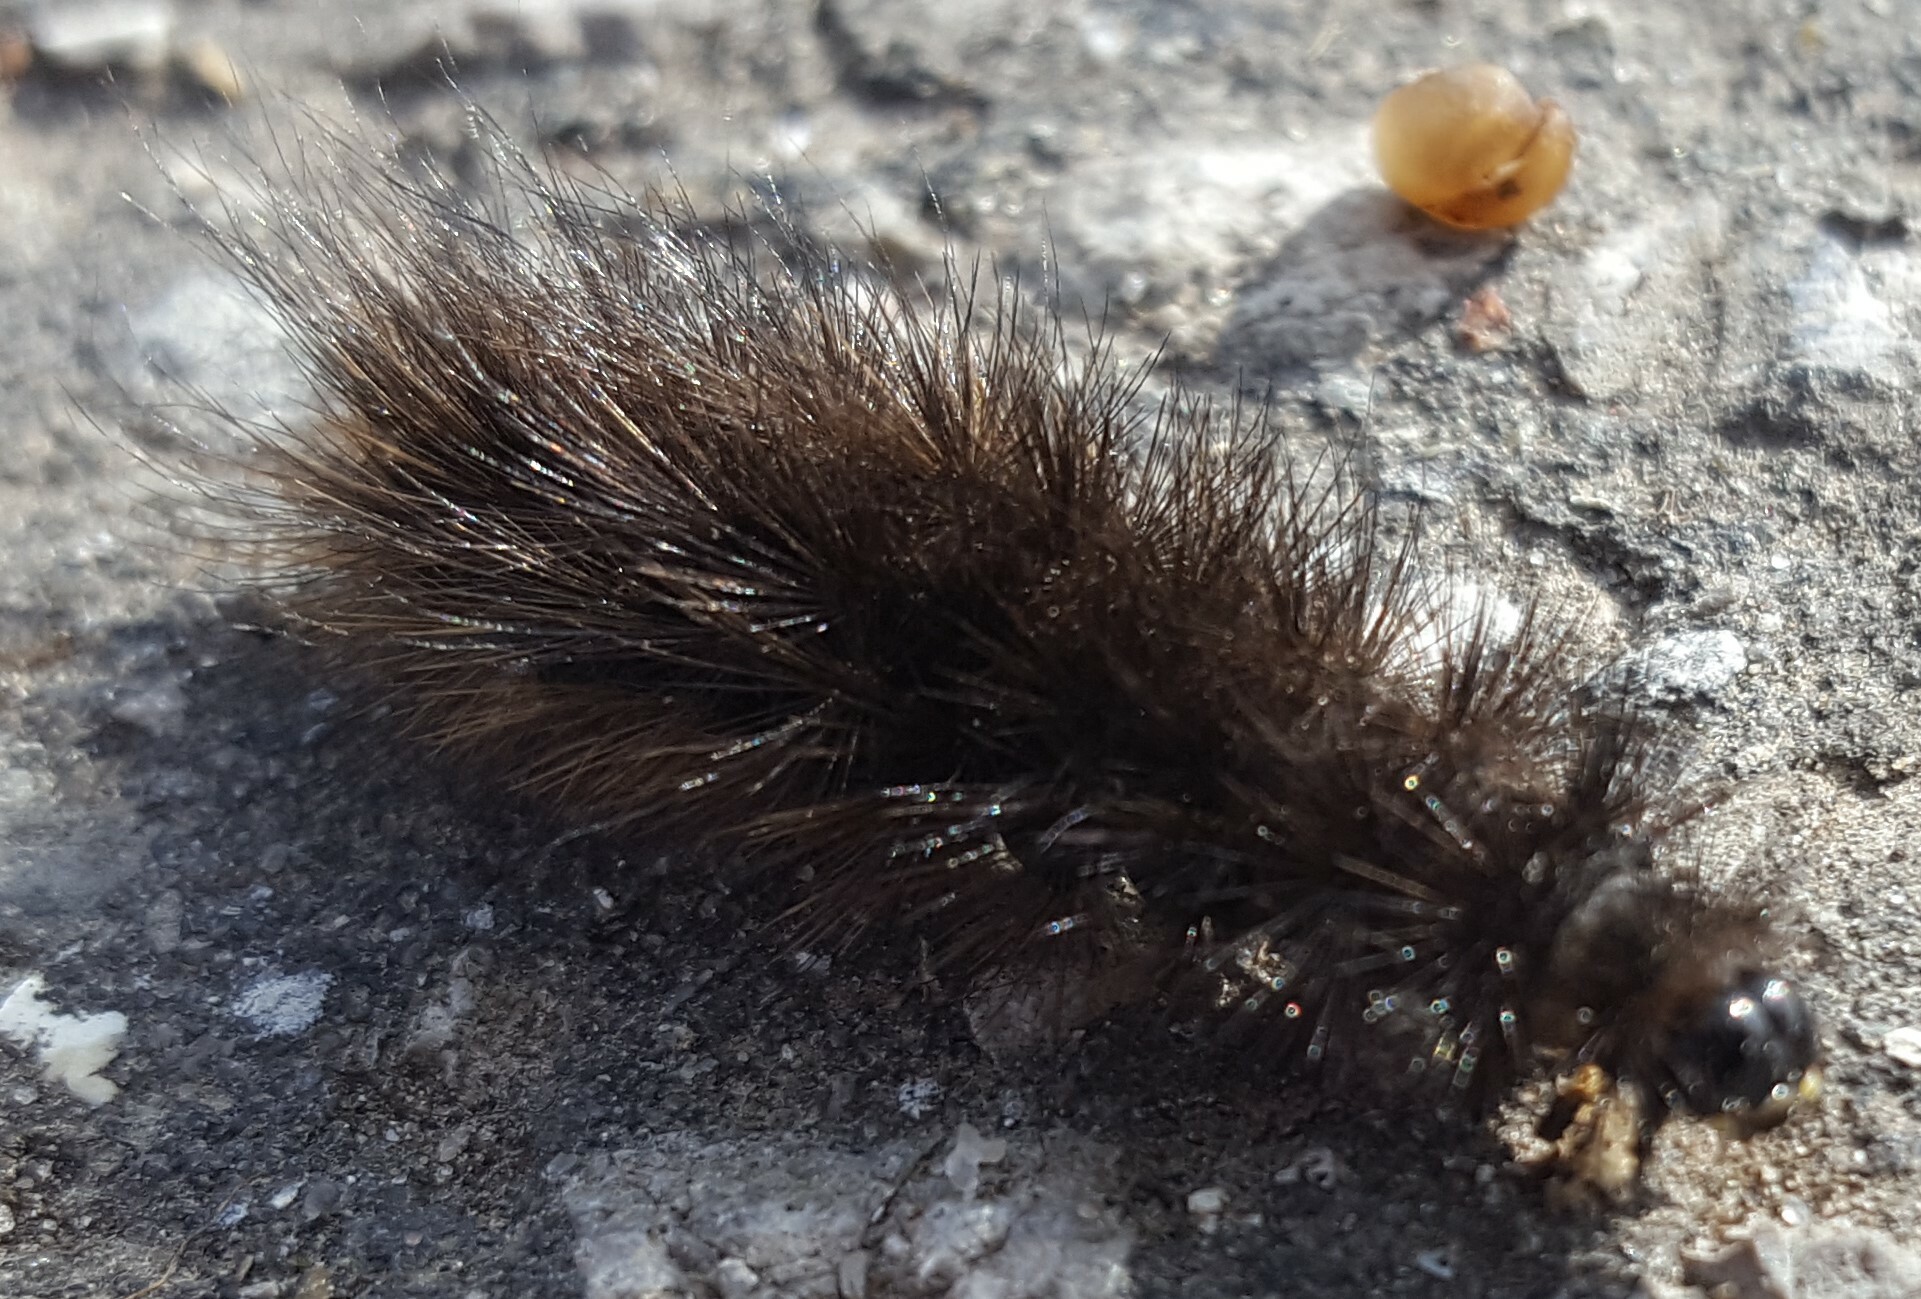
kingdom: Animalia
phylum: Arthropoda
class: Insecta
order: Lepidoptera
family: Erebidae
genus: Phragmatobia
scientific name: Phragmatobia fuliginosa
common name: Ruby tiger
